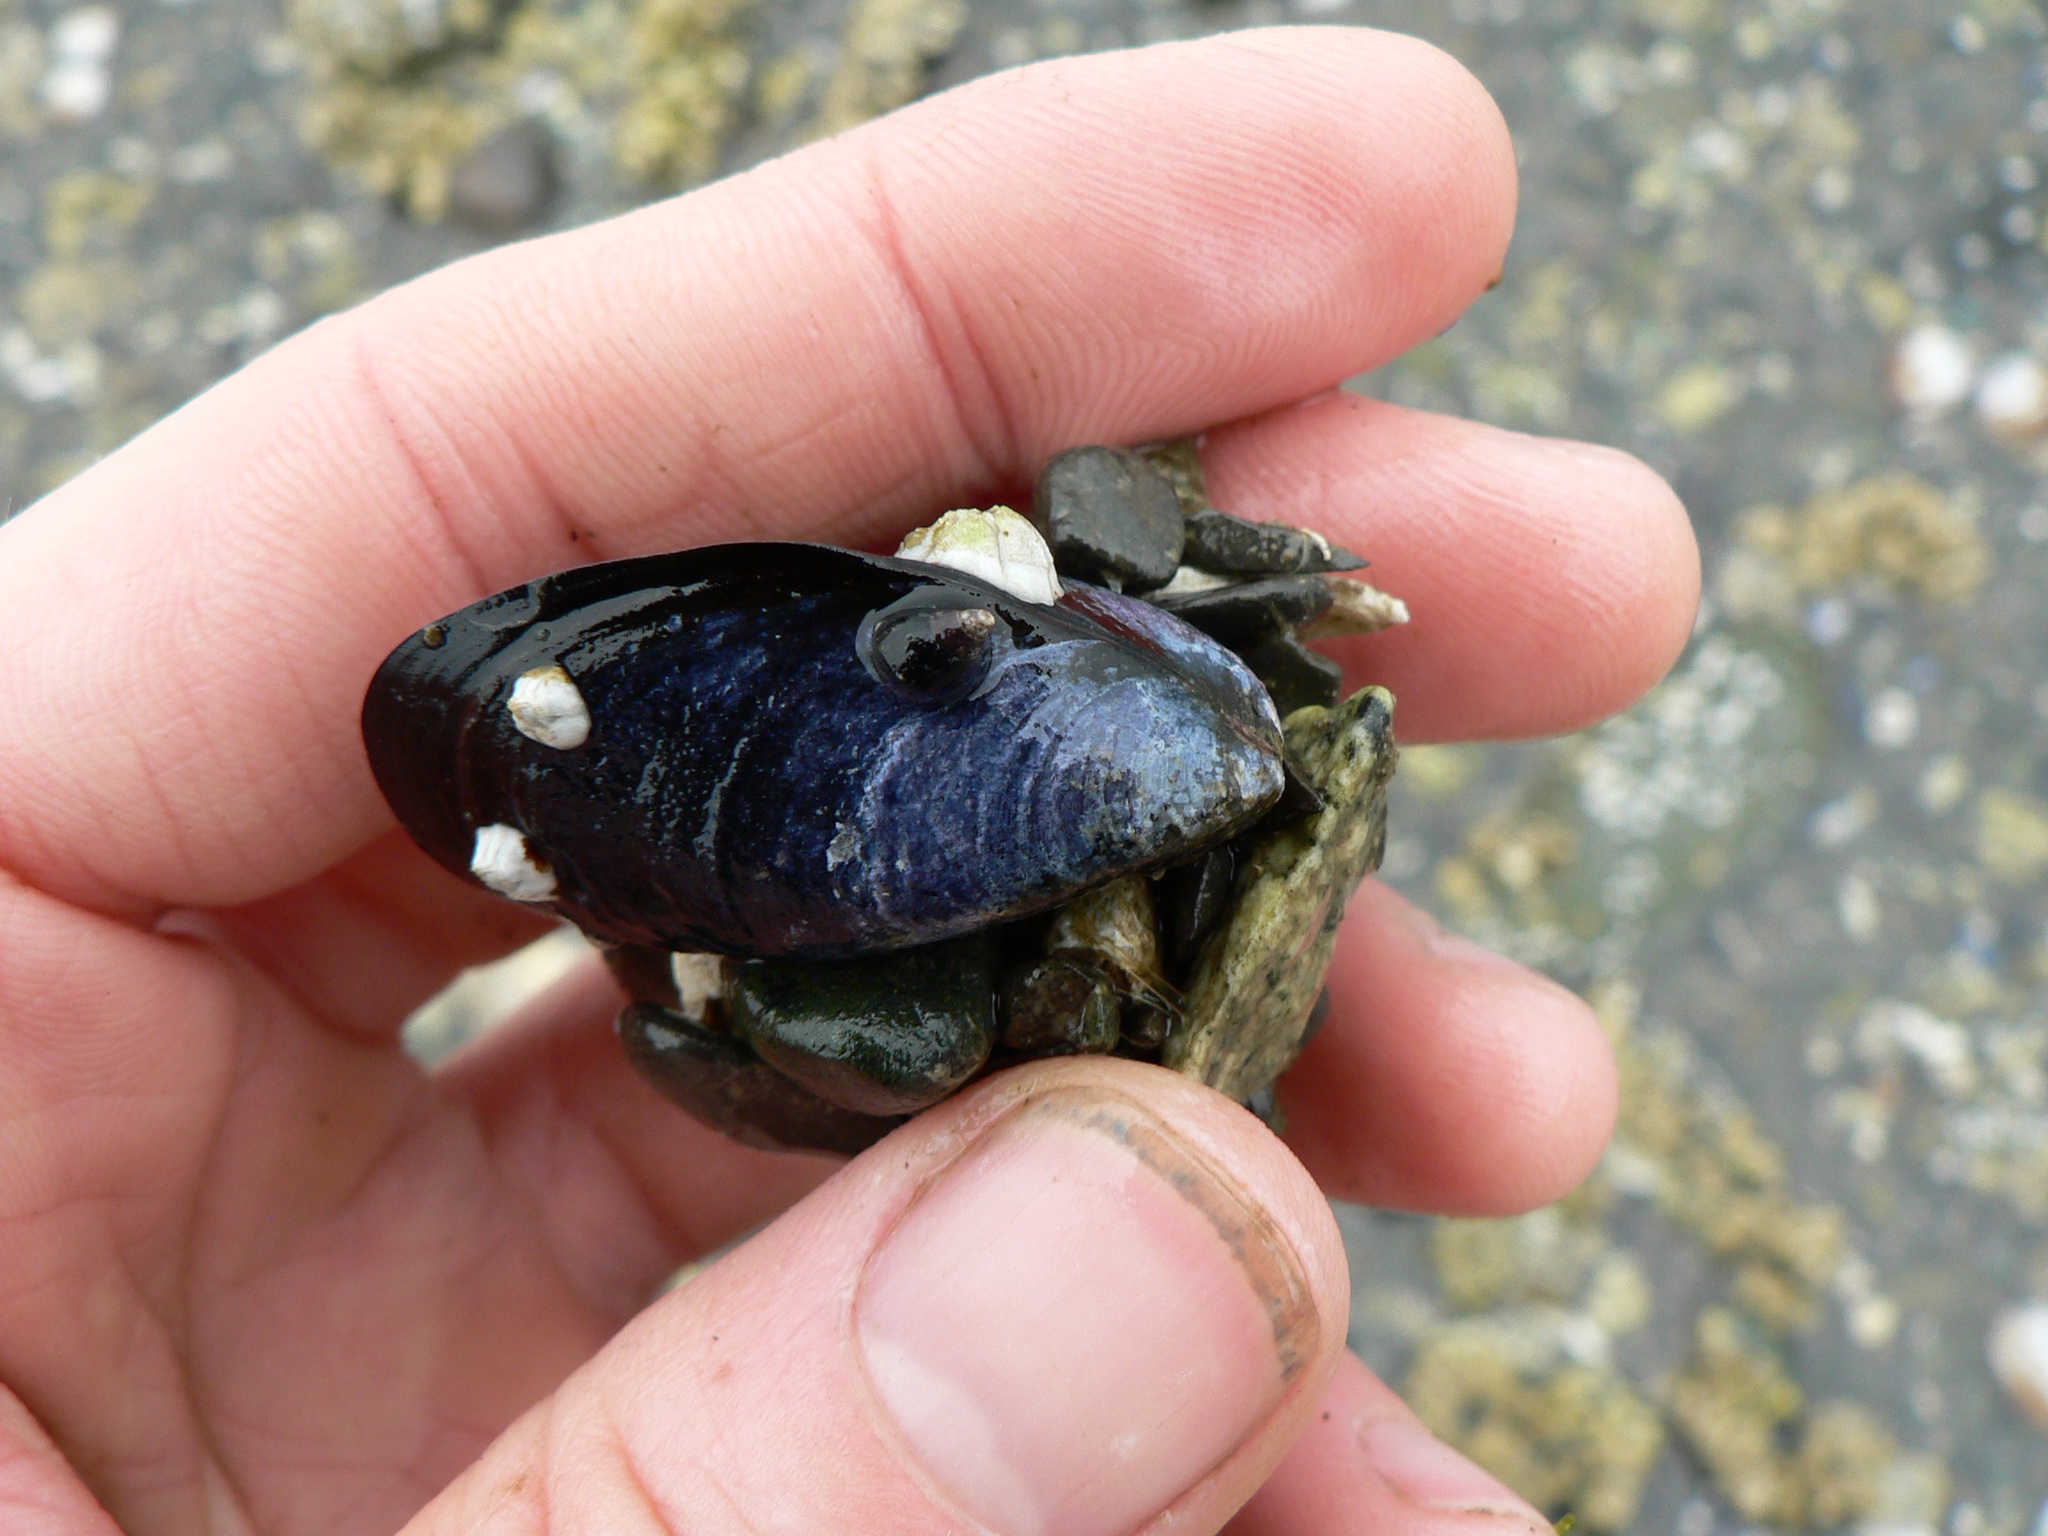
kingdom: Animalia
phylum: Mollusca
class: Bivalvia
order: Mytilida
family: Mytilidae
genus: Mytilus
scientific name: Mytilus
